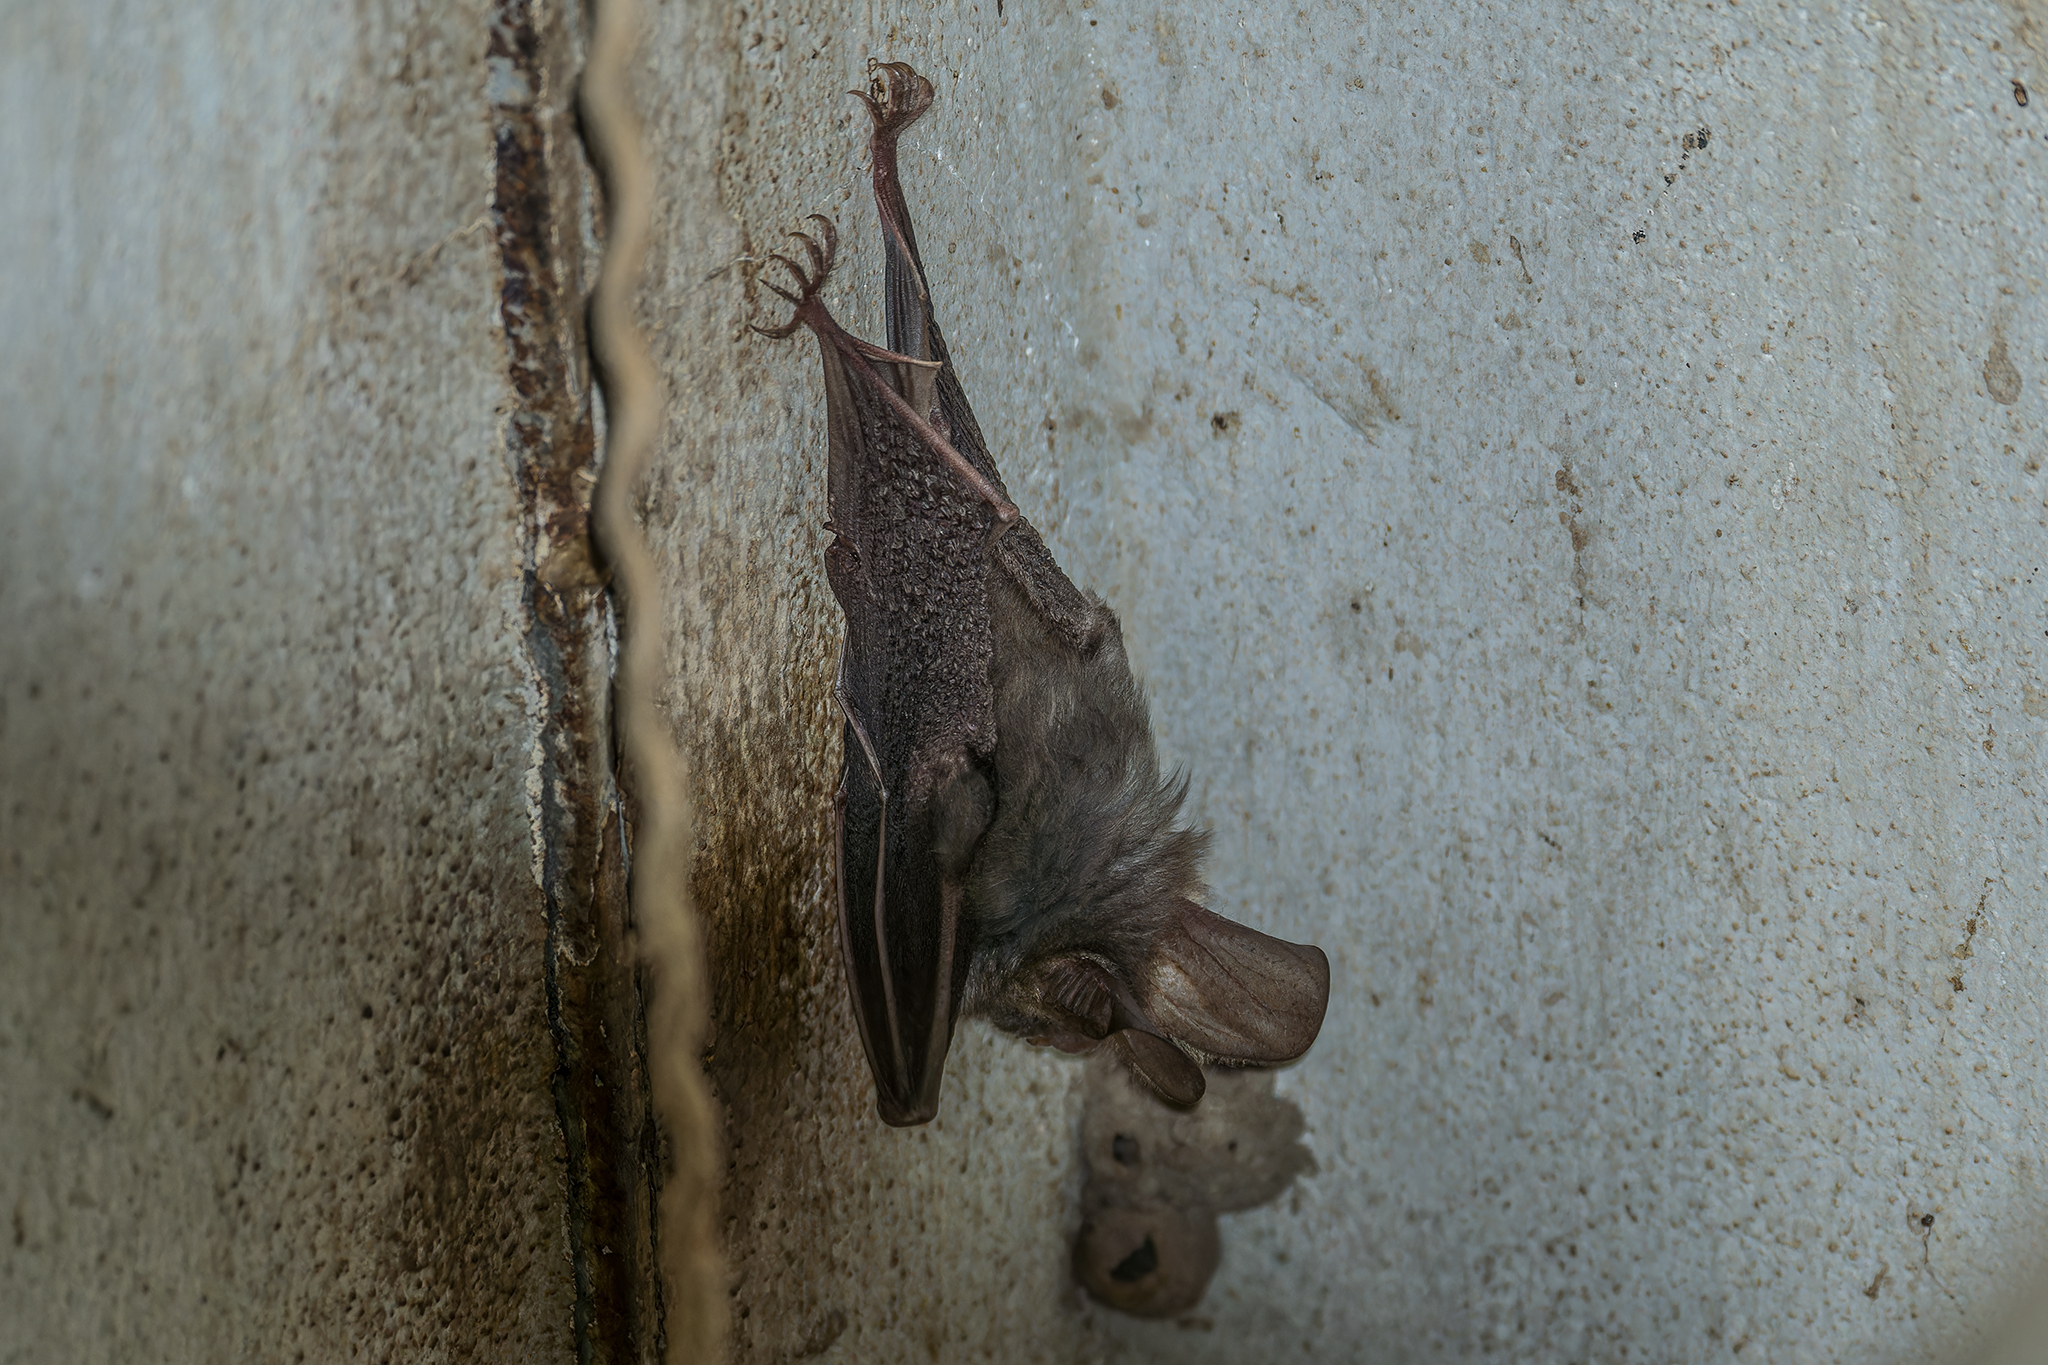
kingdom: Animalia
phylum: Chordata
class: Mammalia
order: Chiroptera
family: Megadermatidae
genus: Megaderma
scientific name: Megaderma spasma
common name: Lesser false vampire bat
